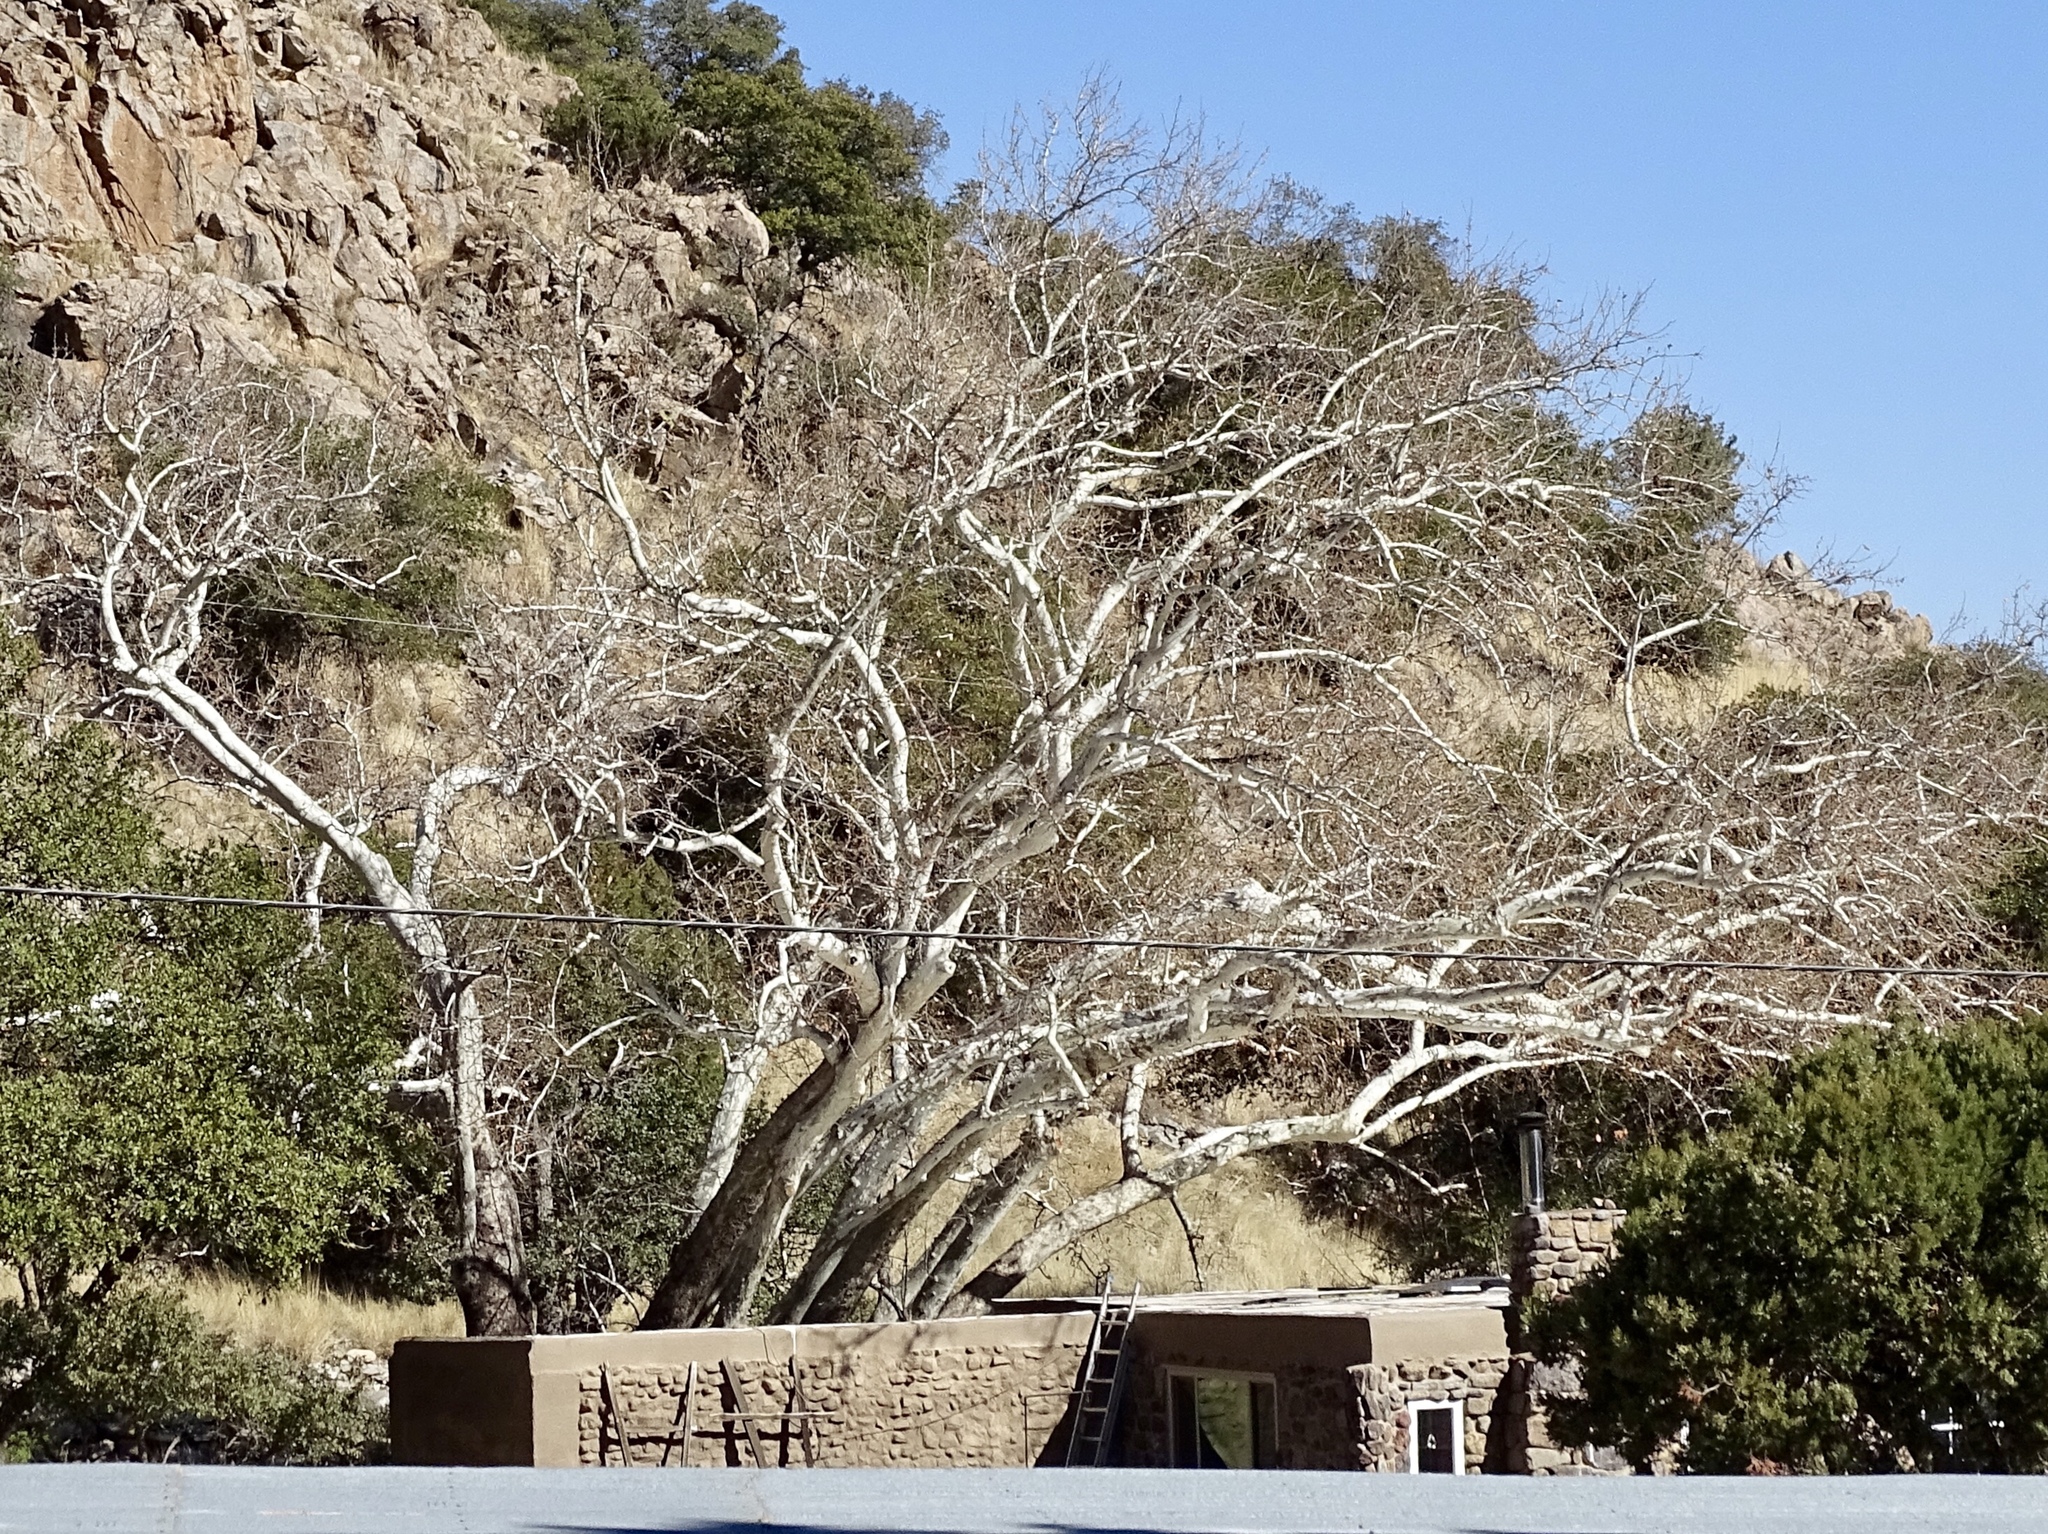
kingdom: Plantae
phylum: Tracheophyta
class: Magnoliopsida
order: Proteales
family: Platanaceae
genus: Platanus
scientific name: Platanus wrightii
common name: Arizona sycamore
